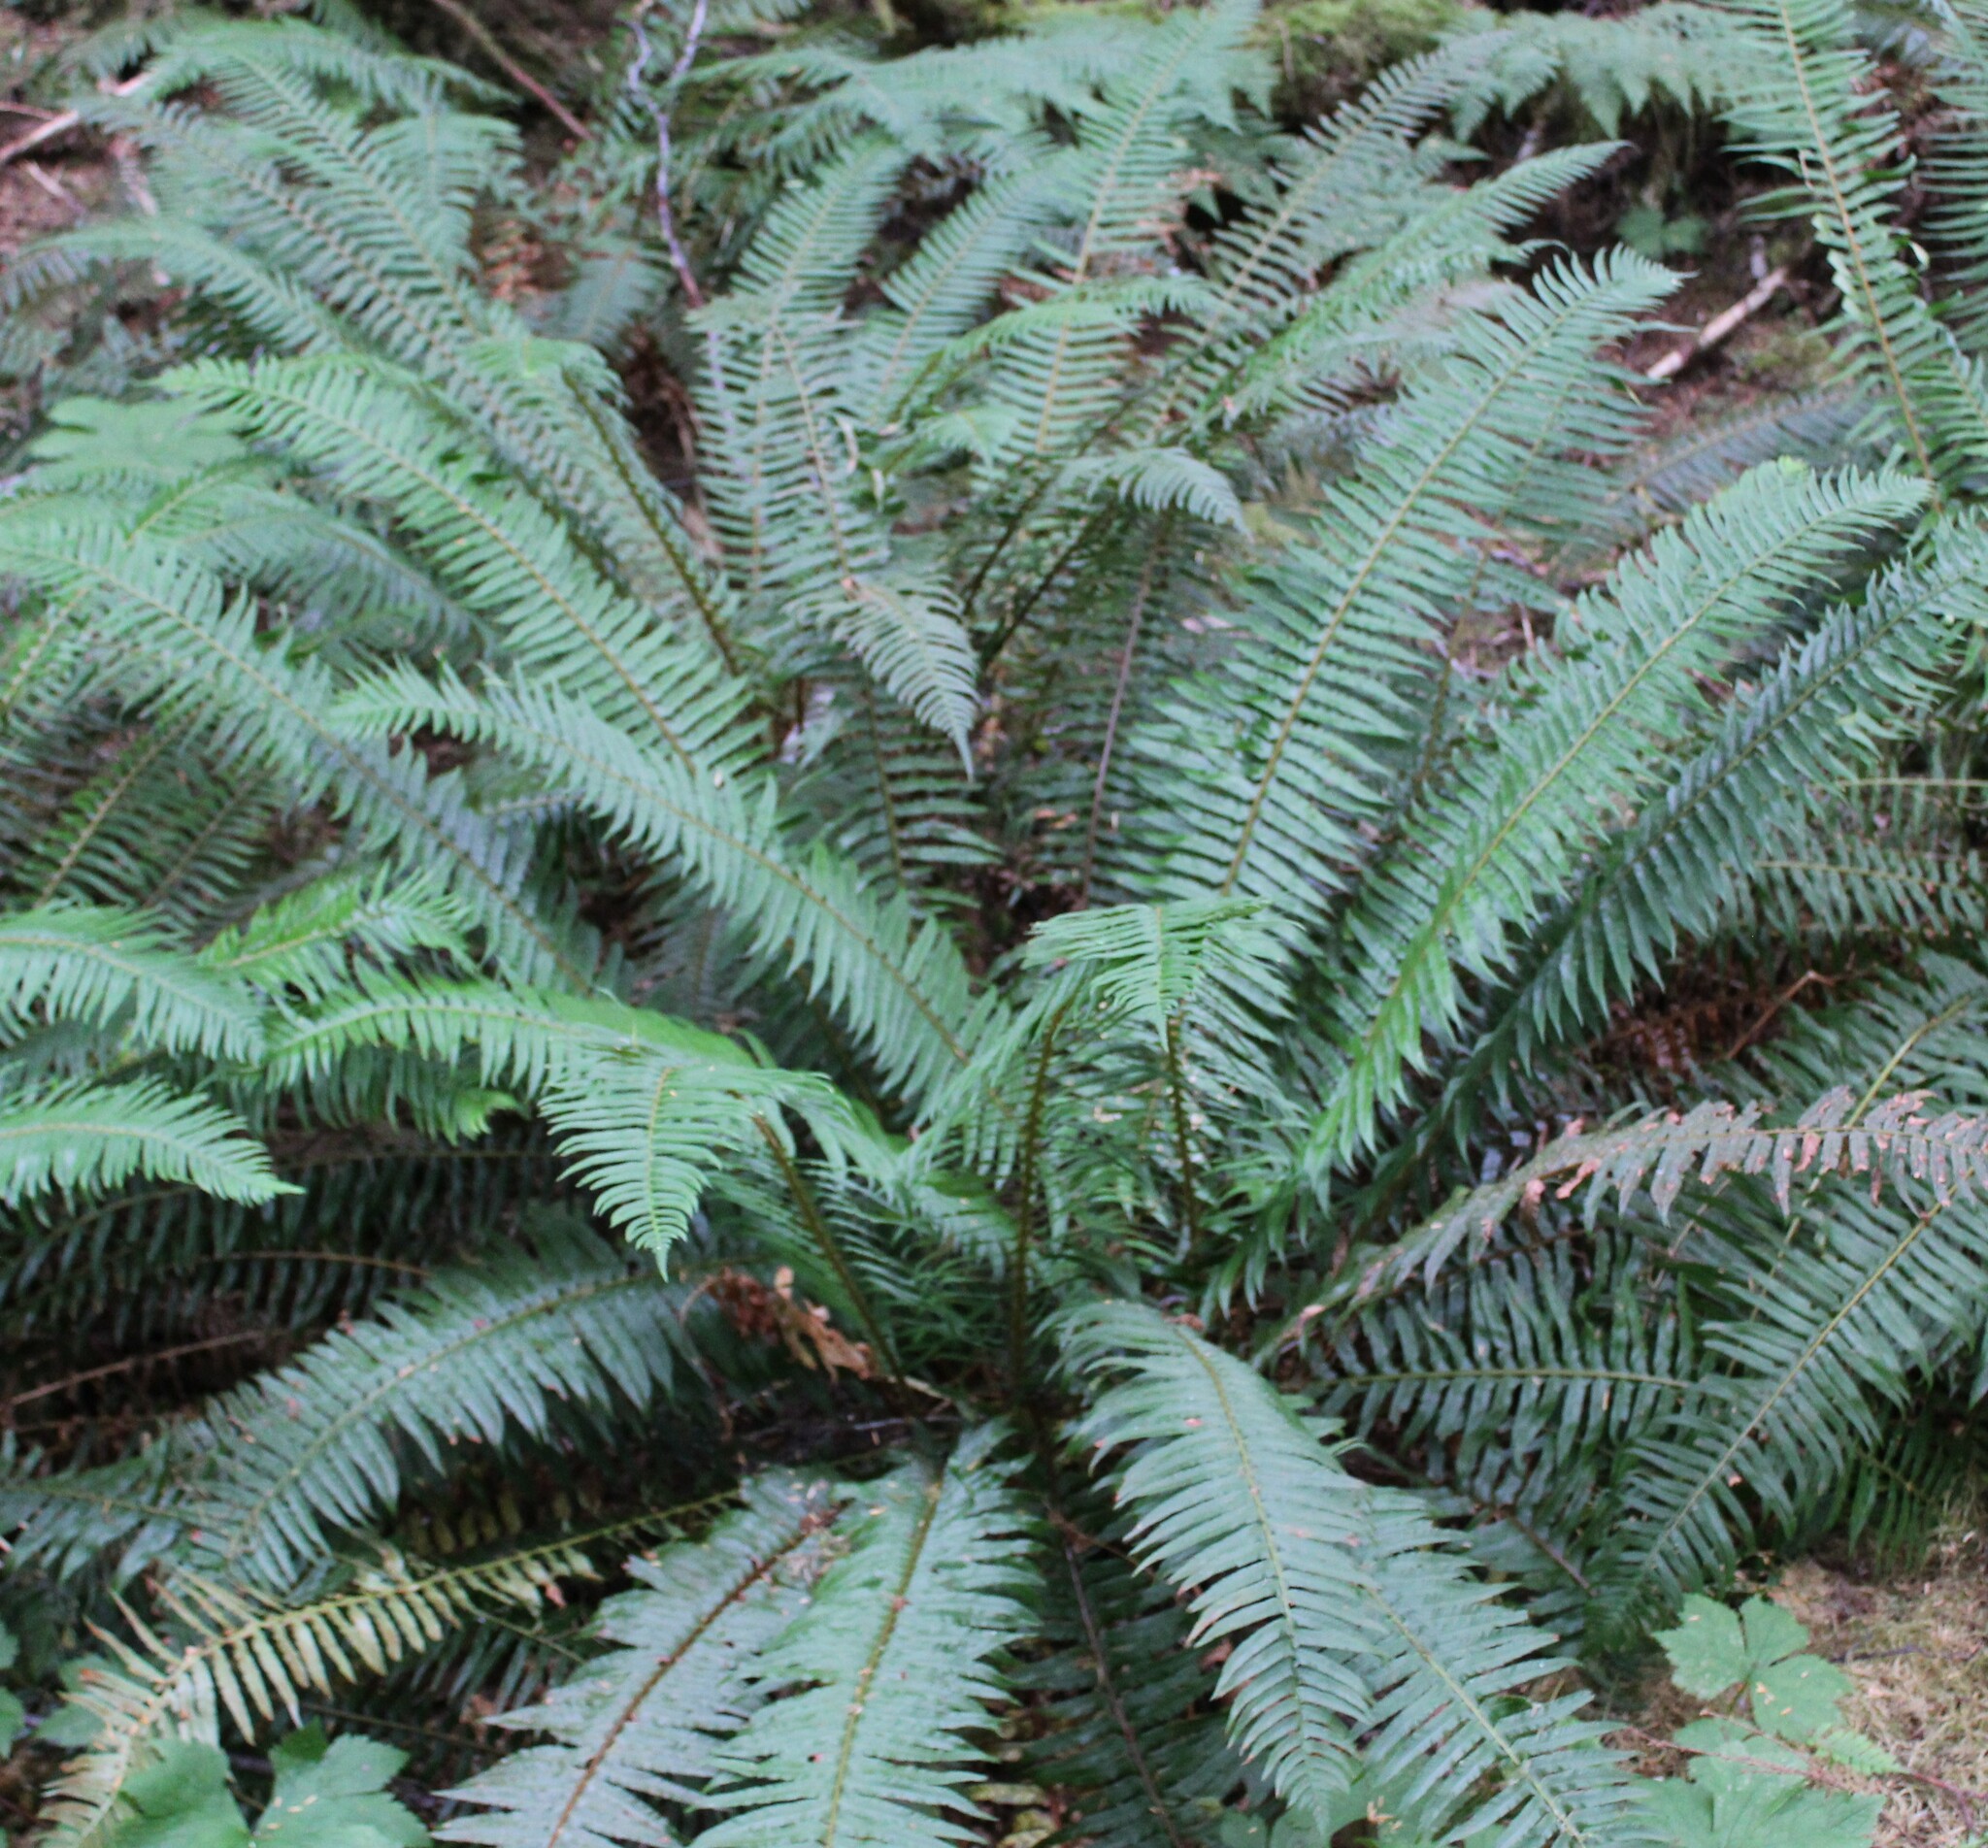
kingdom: Plantae
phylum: Tracheophyta
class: Polypodiopsida
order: Polypodiales
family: Dryopteridaceae
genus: Polystichum
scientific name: Polystichum munitum
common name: Western sword-fern
